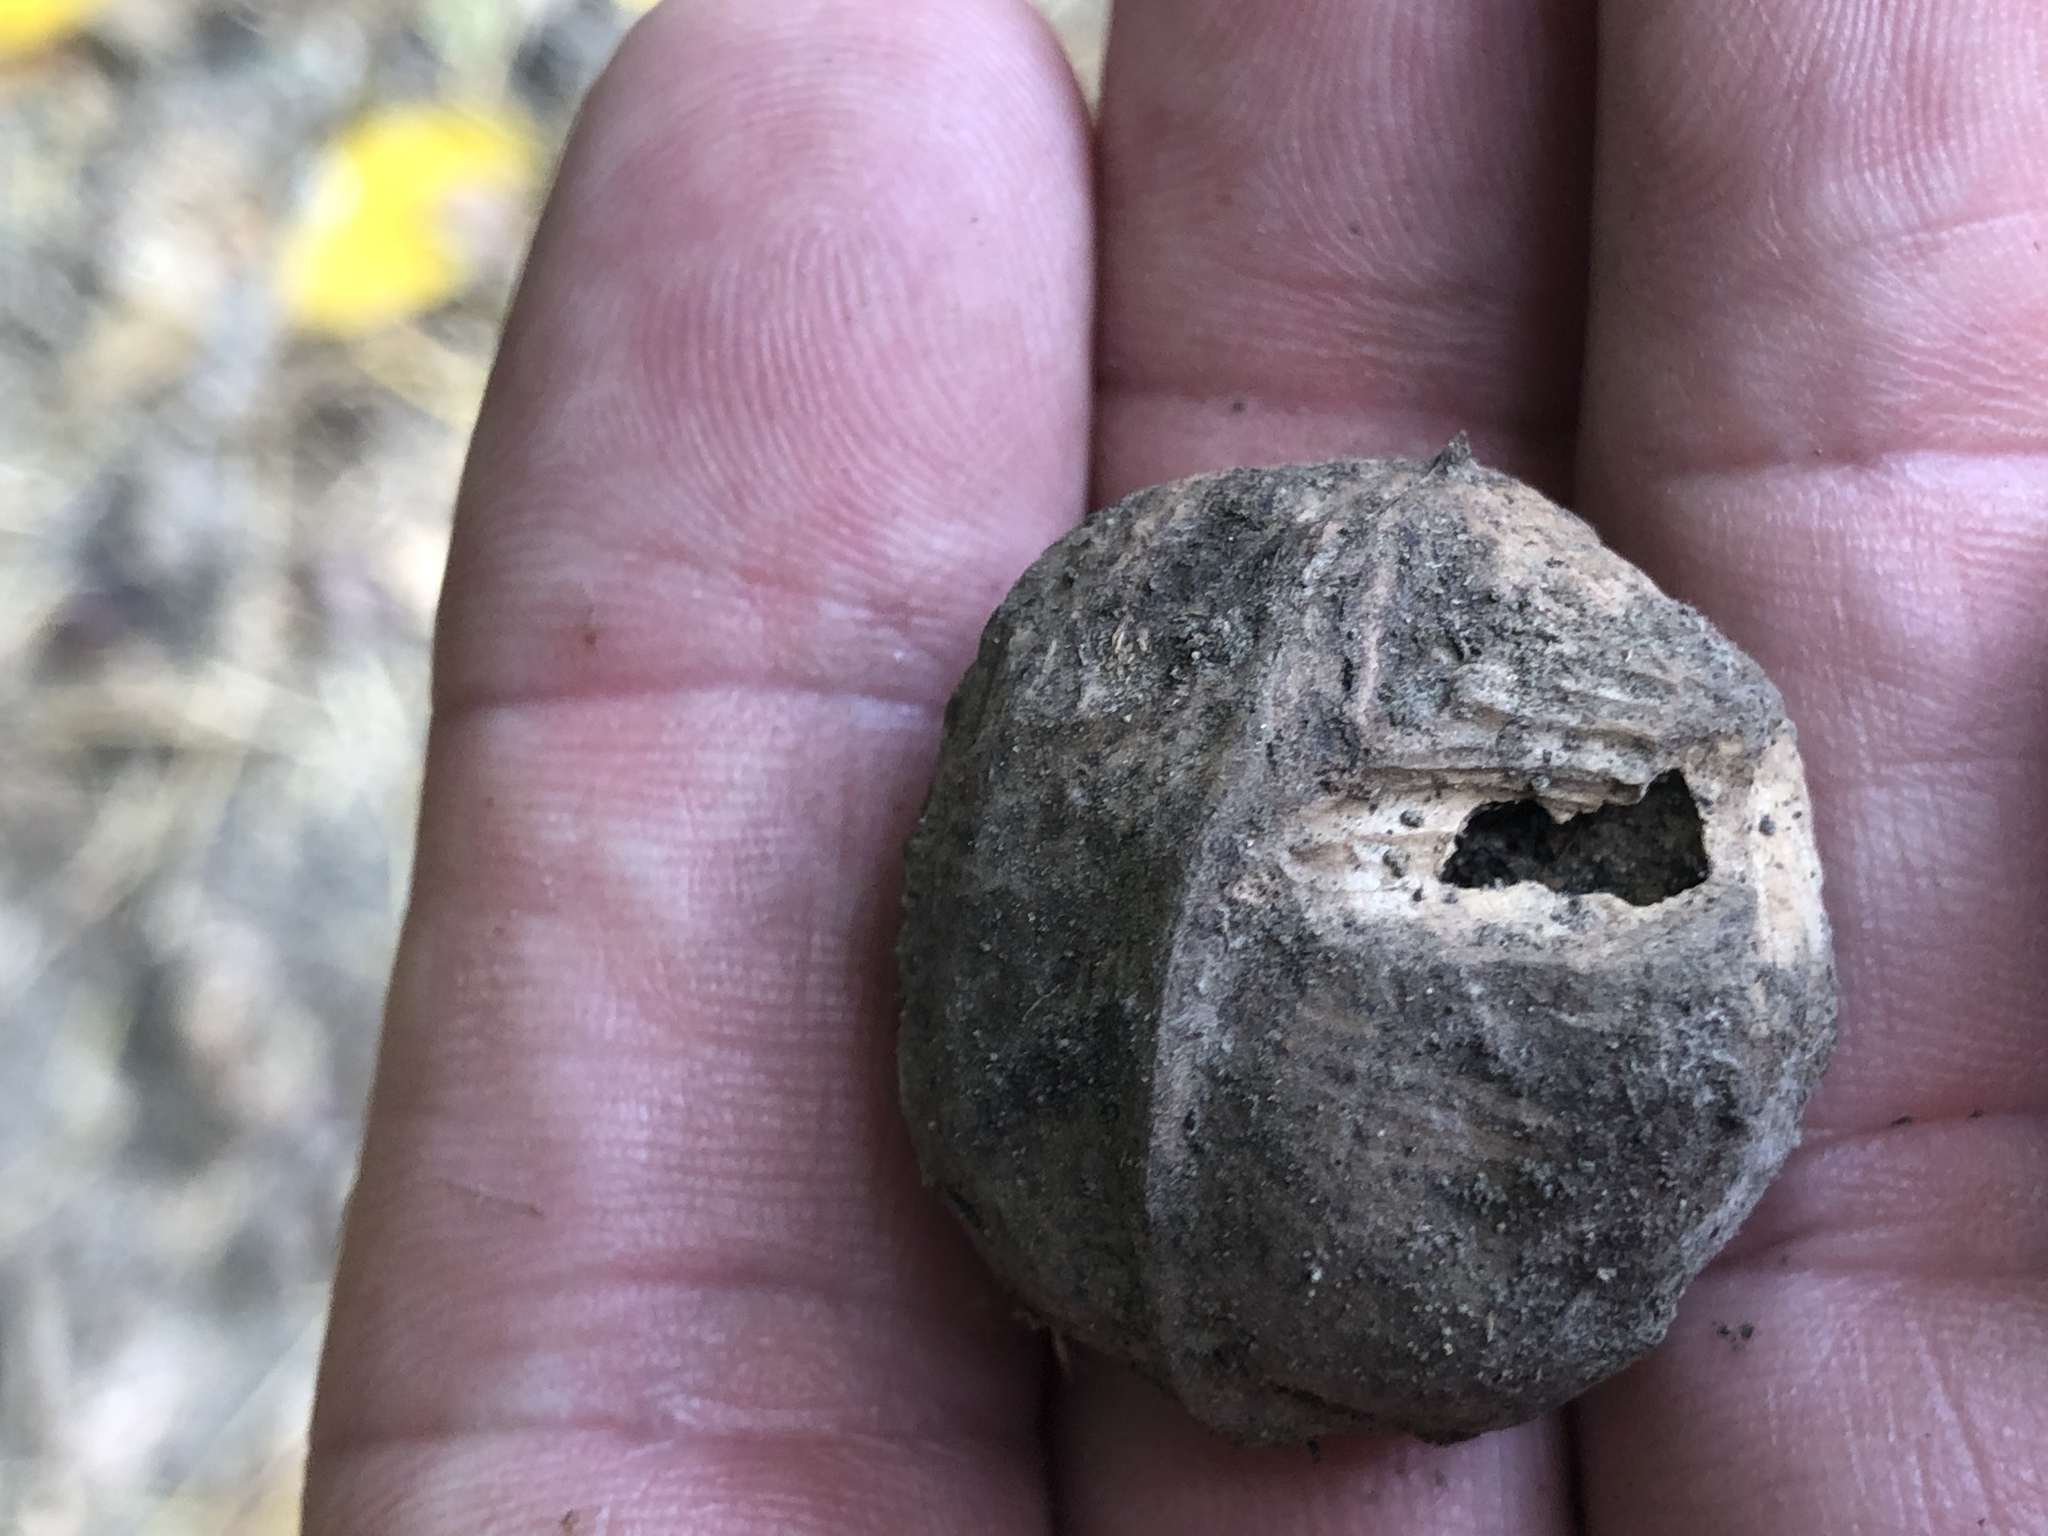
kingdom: Plantae
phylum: Tracheophyta
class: Magnoliopsida
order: Fagales
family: Juglandaceae
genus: Juglans
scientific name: Juglans regia
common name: Walnut
